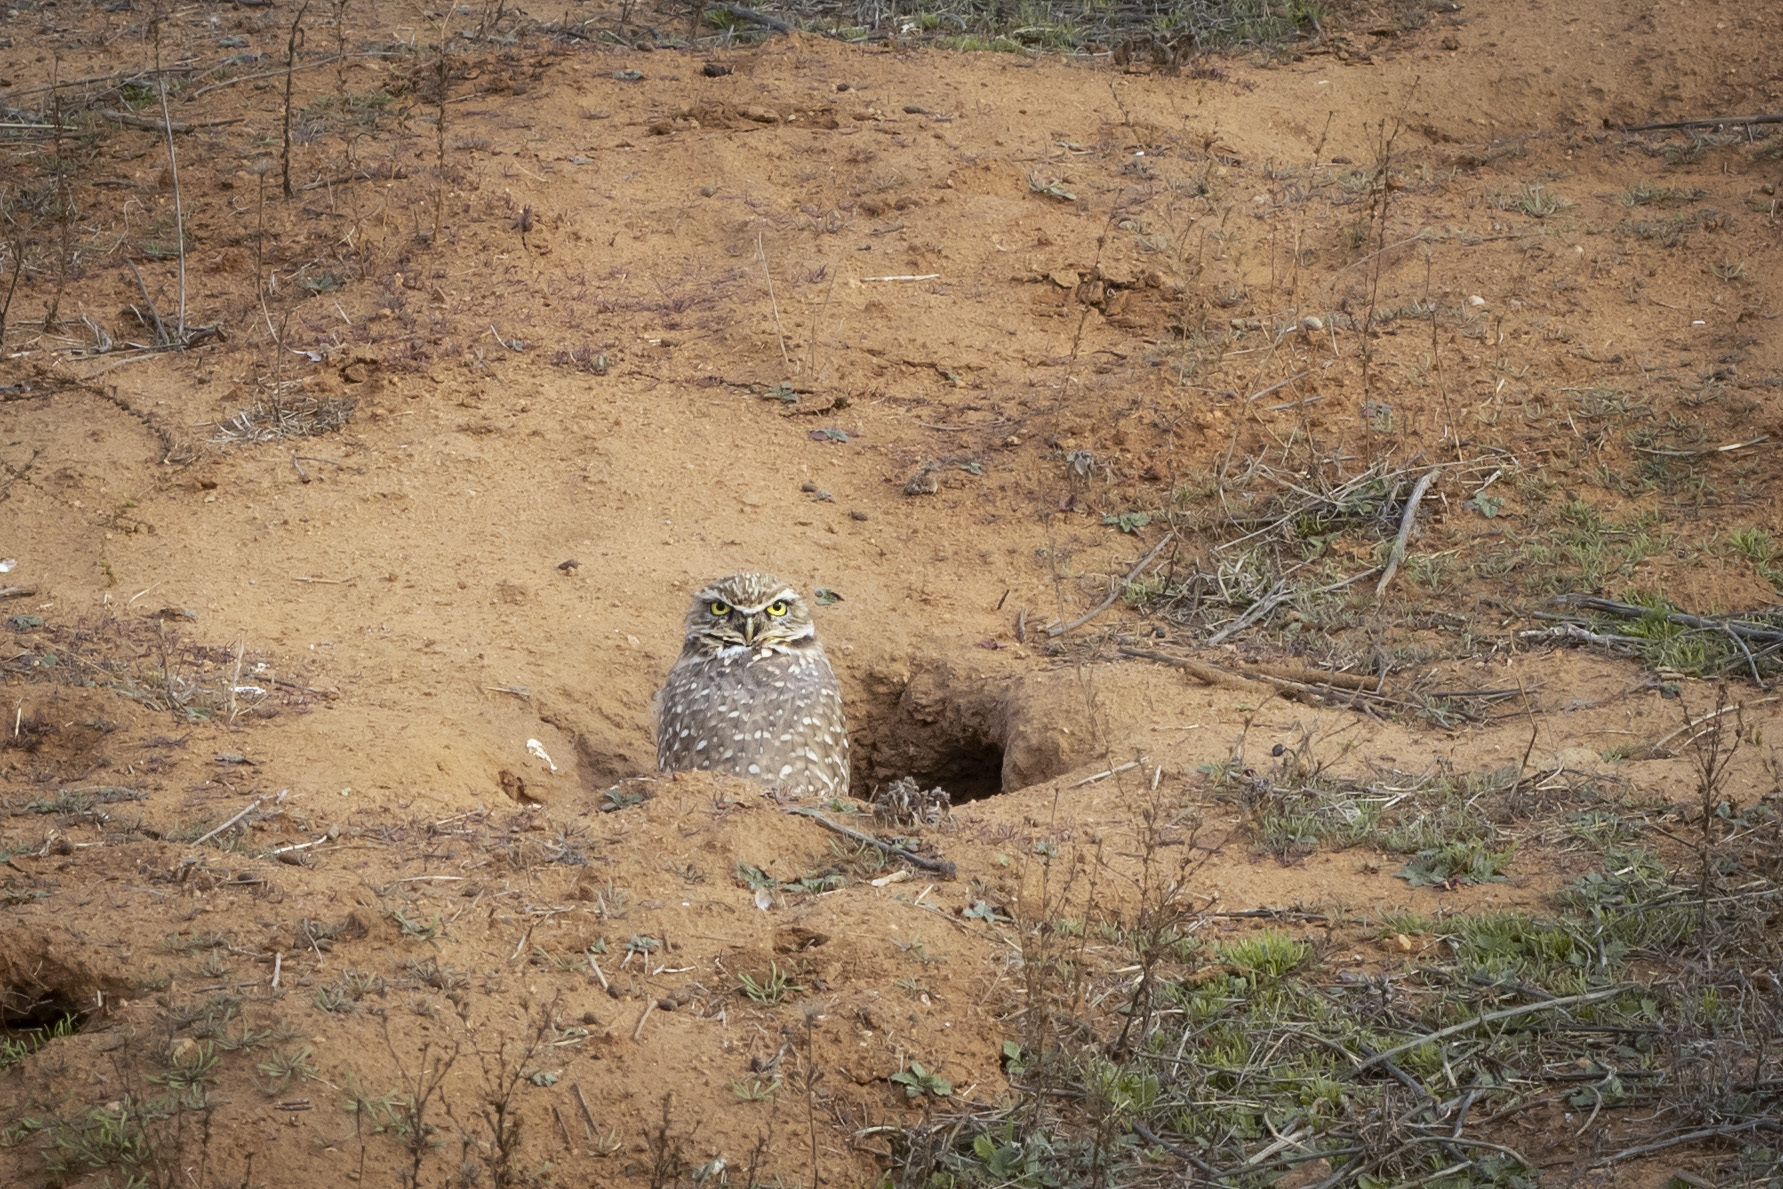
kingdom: Animalia
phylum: Chordata
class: Aves
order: Strigiformes
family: Strigidae
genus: Athene
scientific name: Athene cunicularia
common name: Burrowing owl
